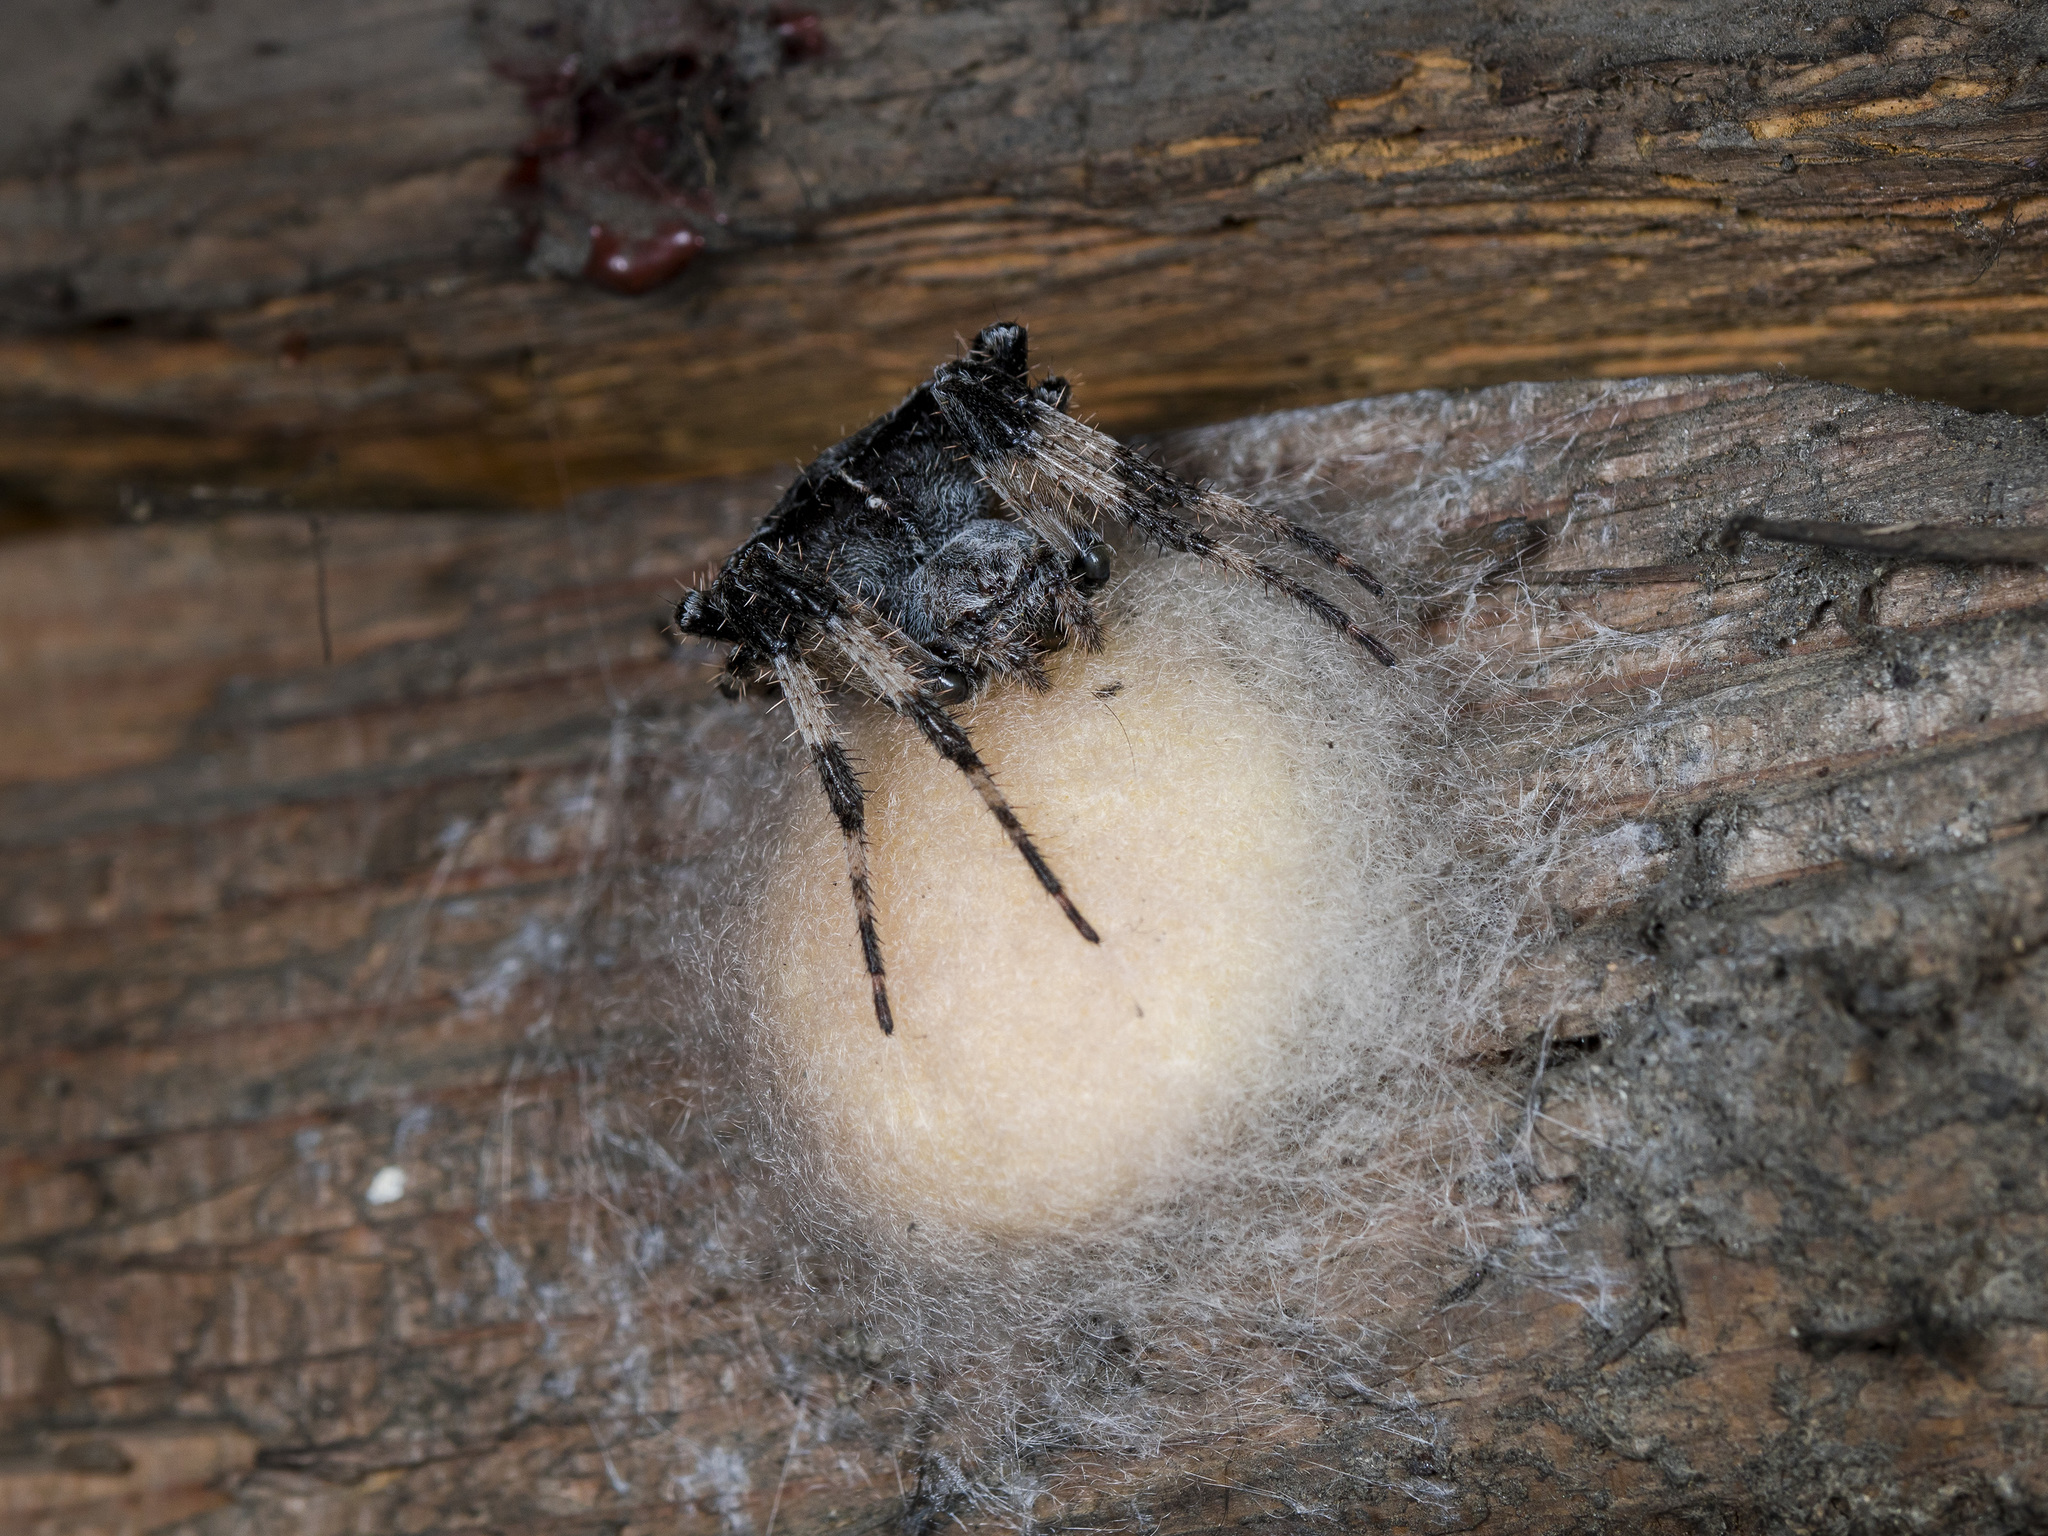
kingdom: Animalia
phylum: Arthropoda
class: Arachnida
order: Araneae
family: Araneidae
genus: Araneus
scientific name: Araneus tartaricus
